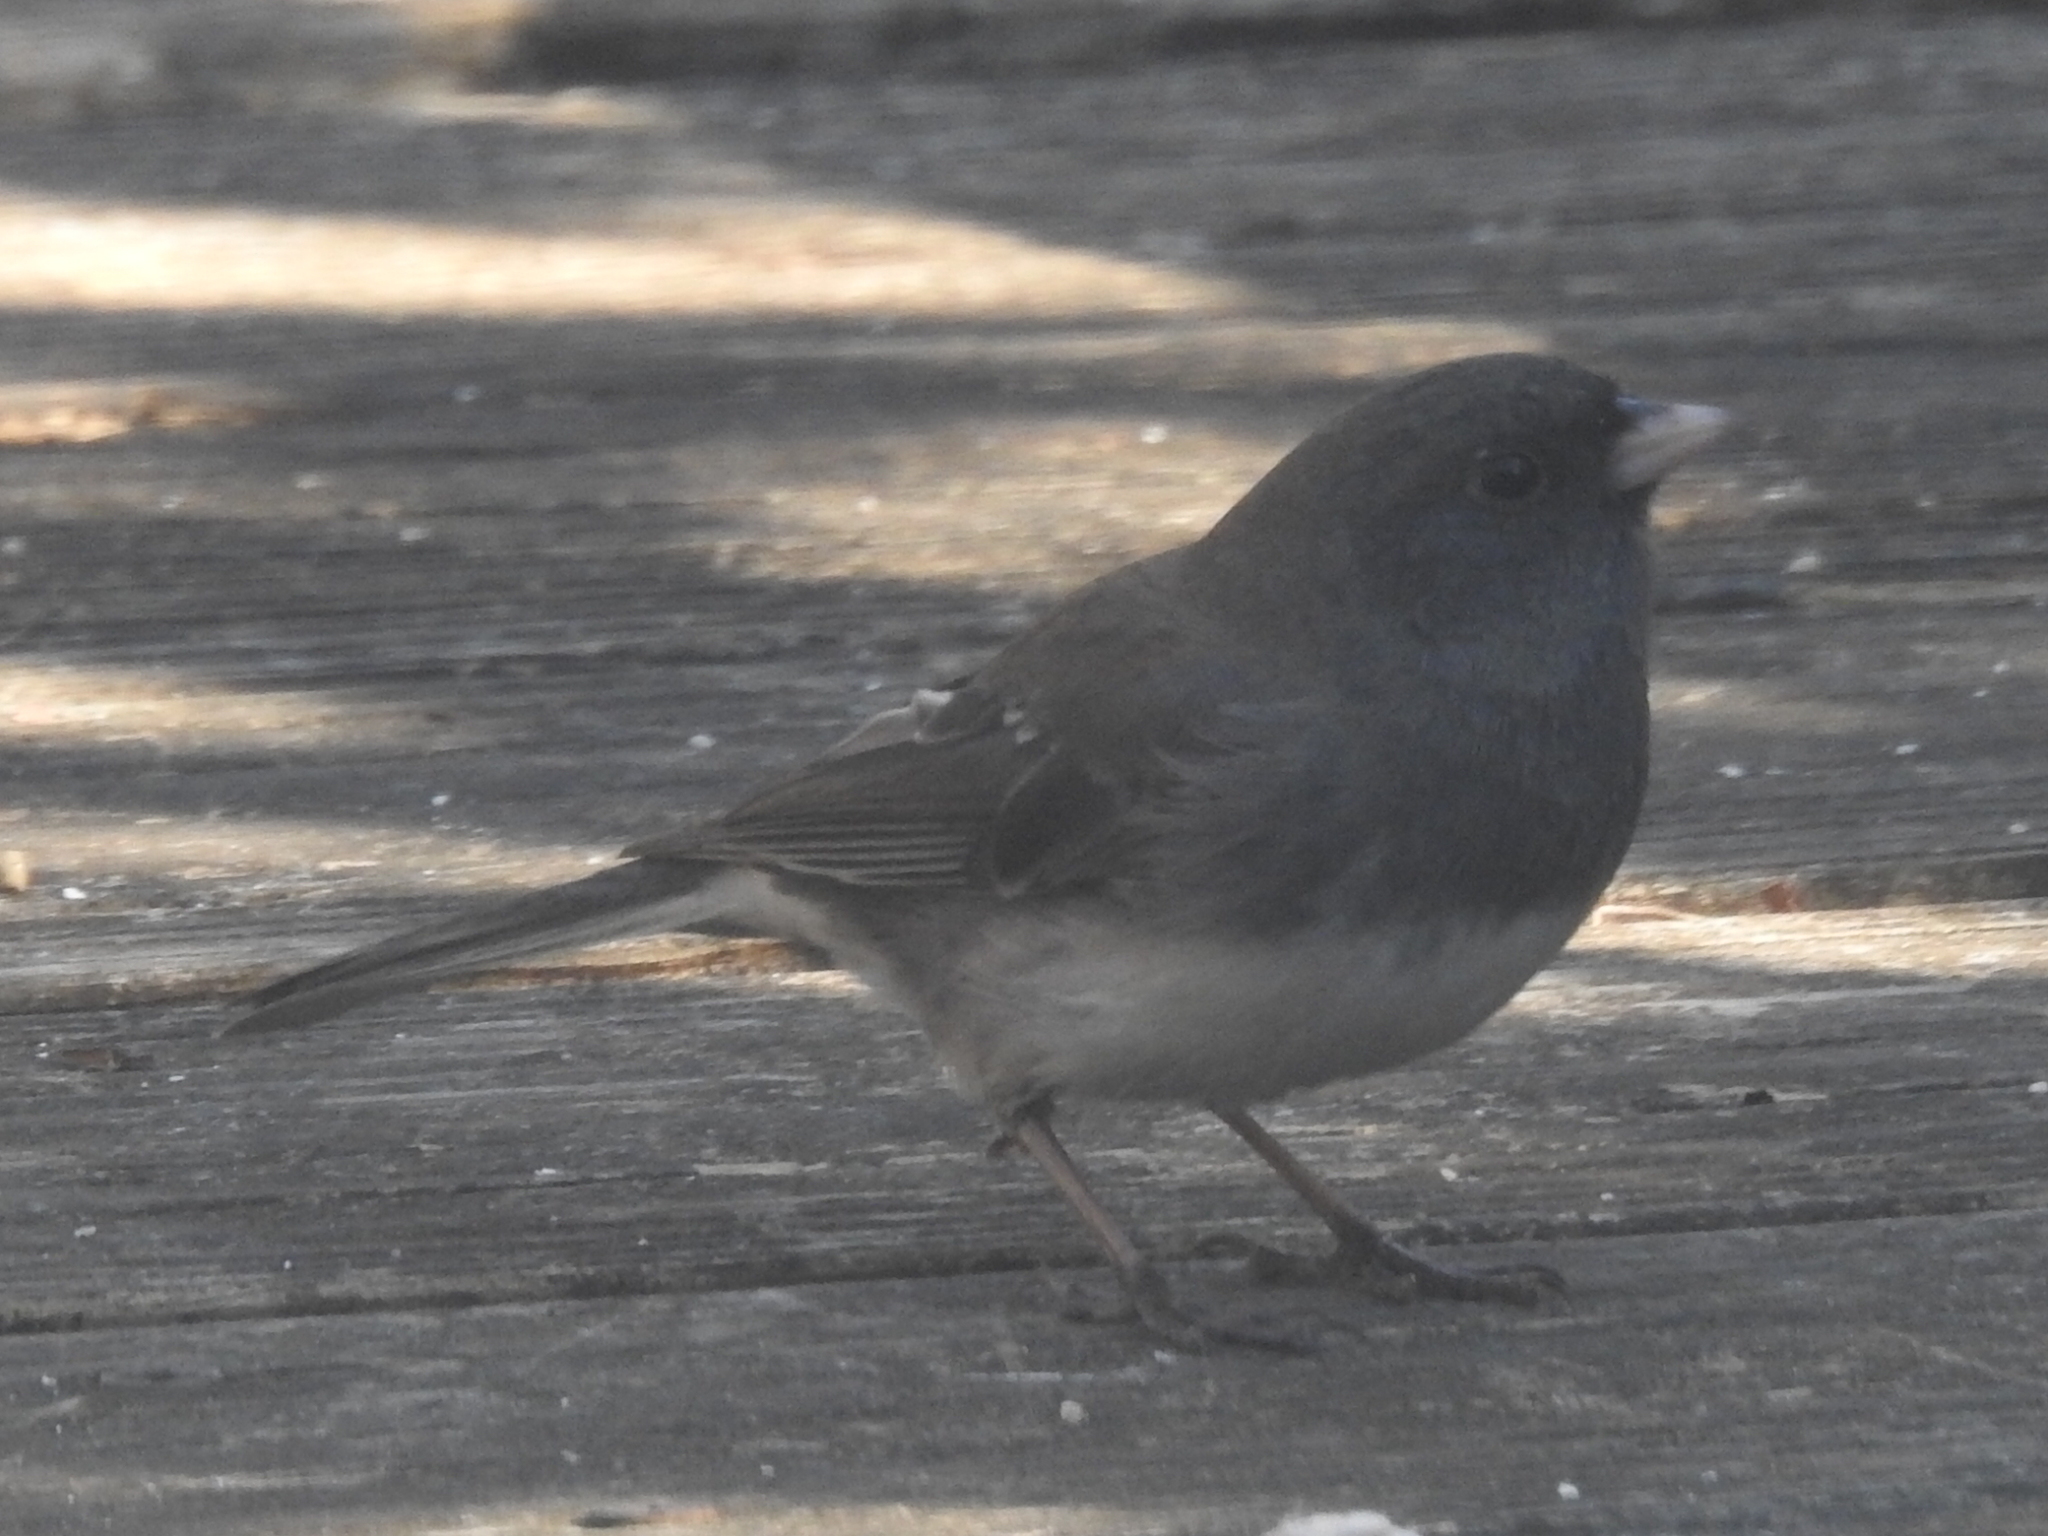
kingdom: Animalia
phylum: Chordata
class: Aves
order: Passeriformes
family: Passerellidae
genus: Junco
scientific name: Junco hyemalis
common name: Dark-eyed junco
